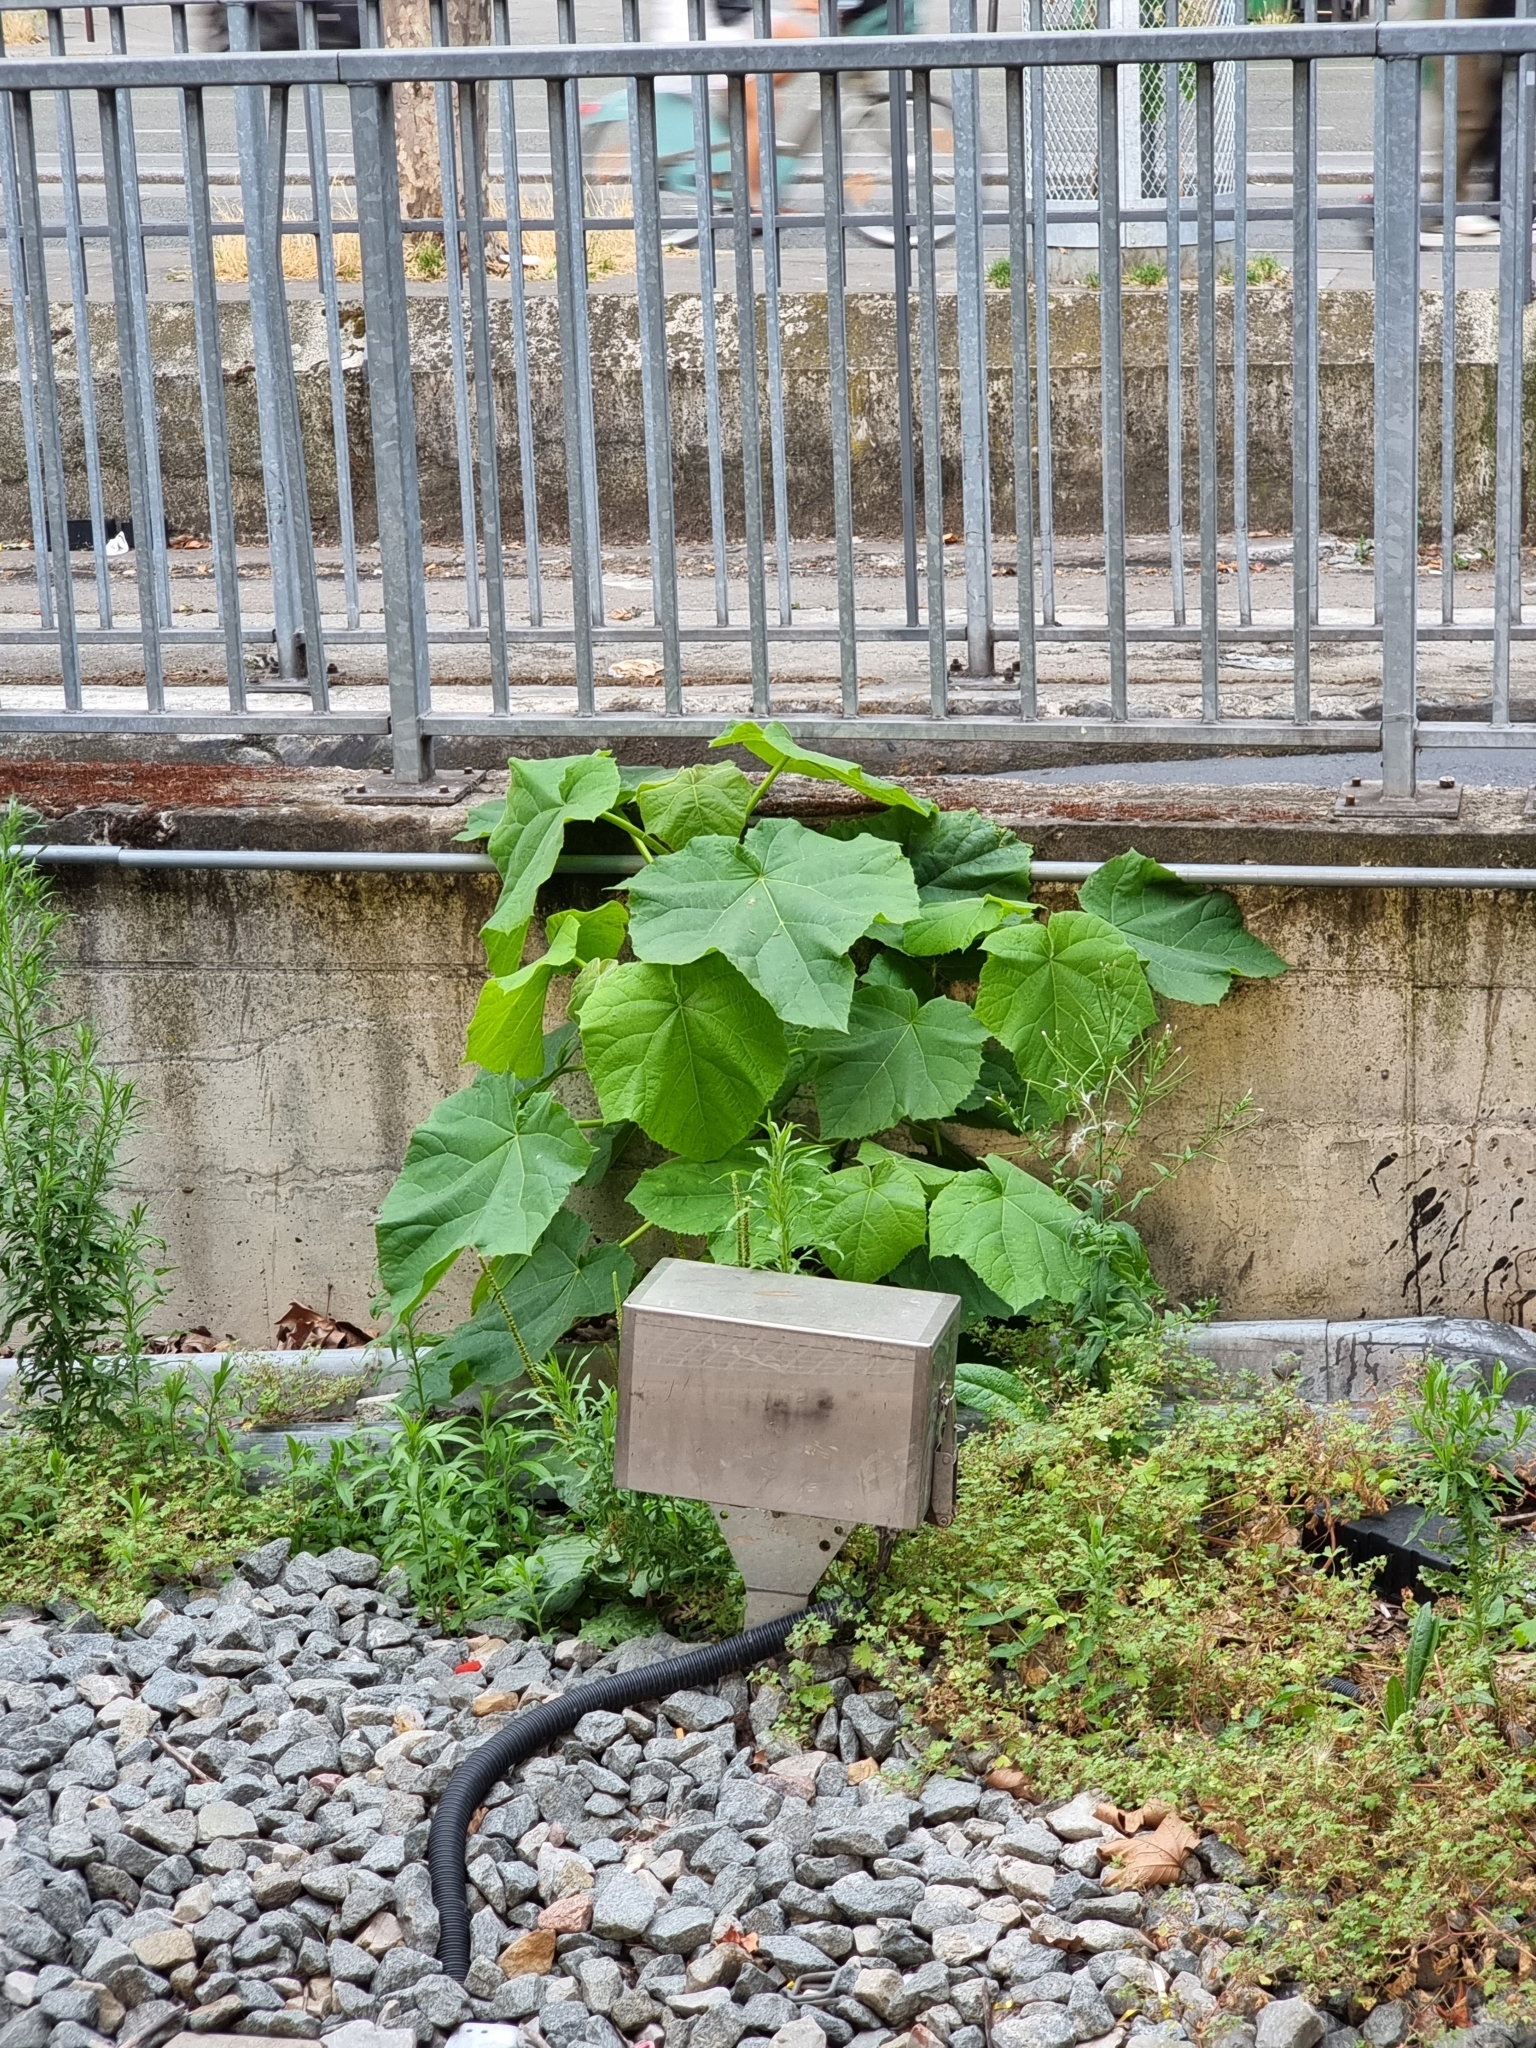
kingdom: Plantae
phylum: Tracheophyta
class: Magnoliopsida
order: Lamiales
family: Paulowniaceae
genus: Paulownia
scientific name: Paulownia tomentosa
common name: Foxglove-tree
